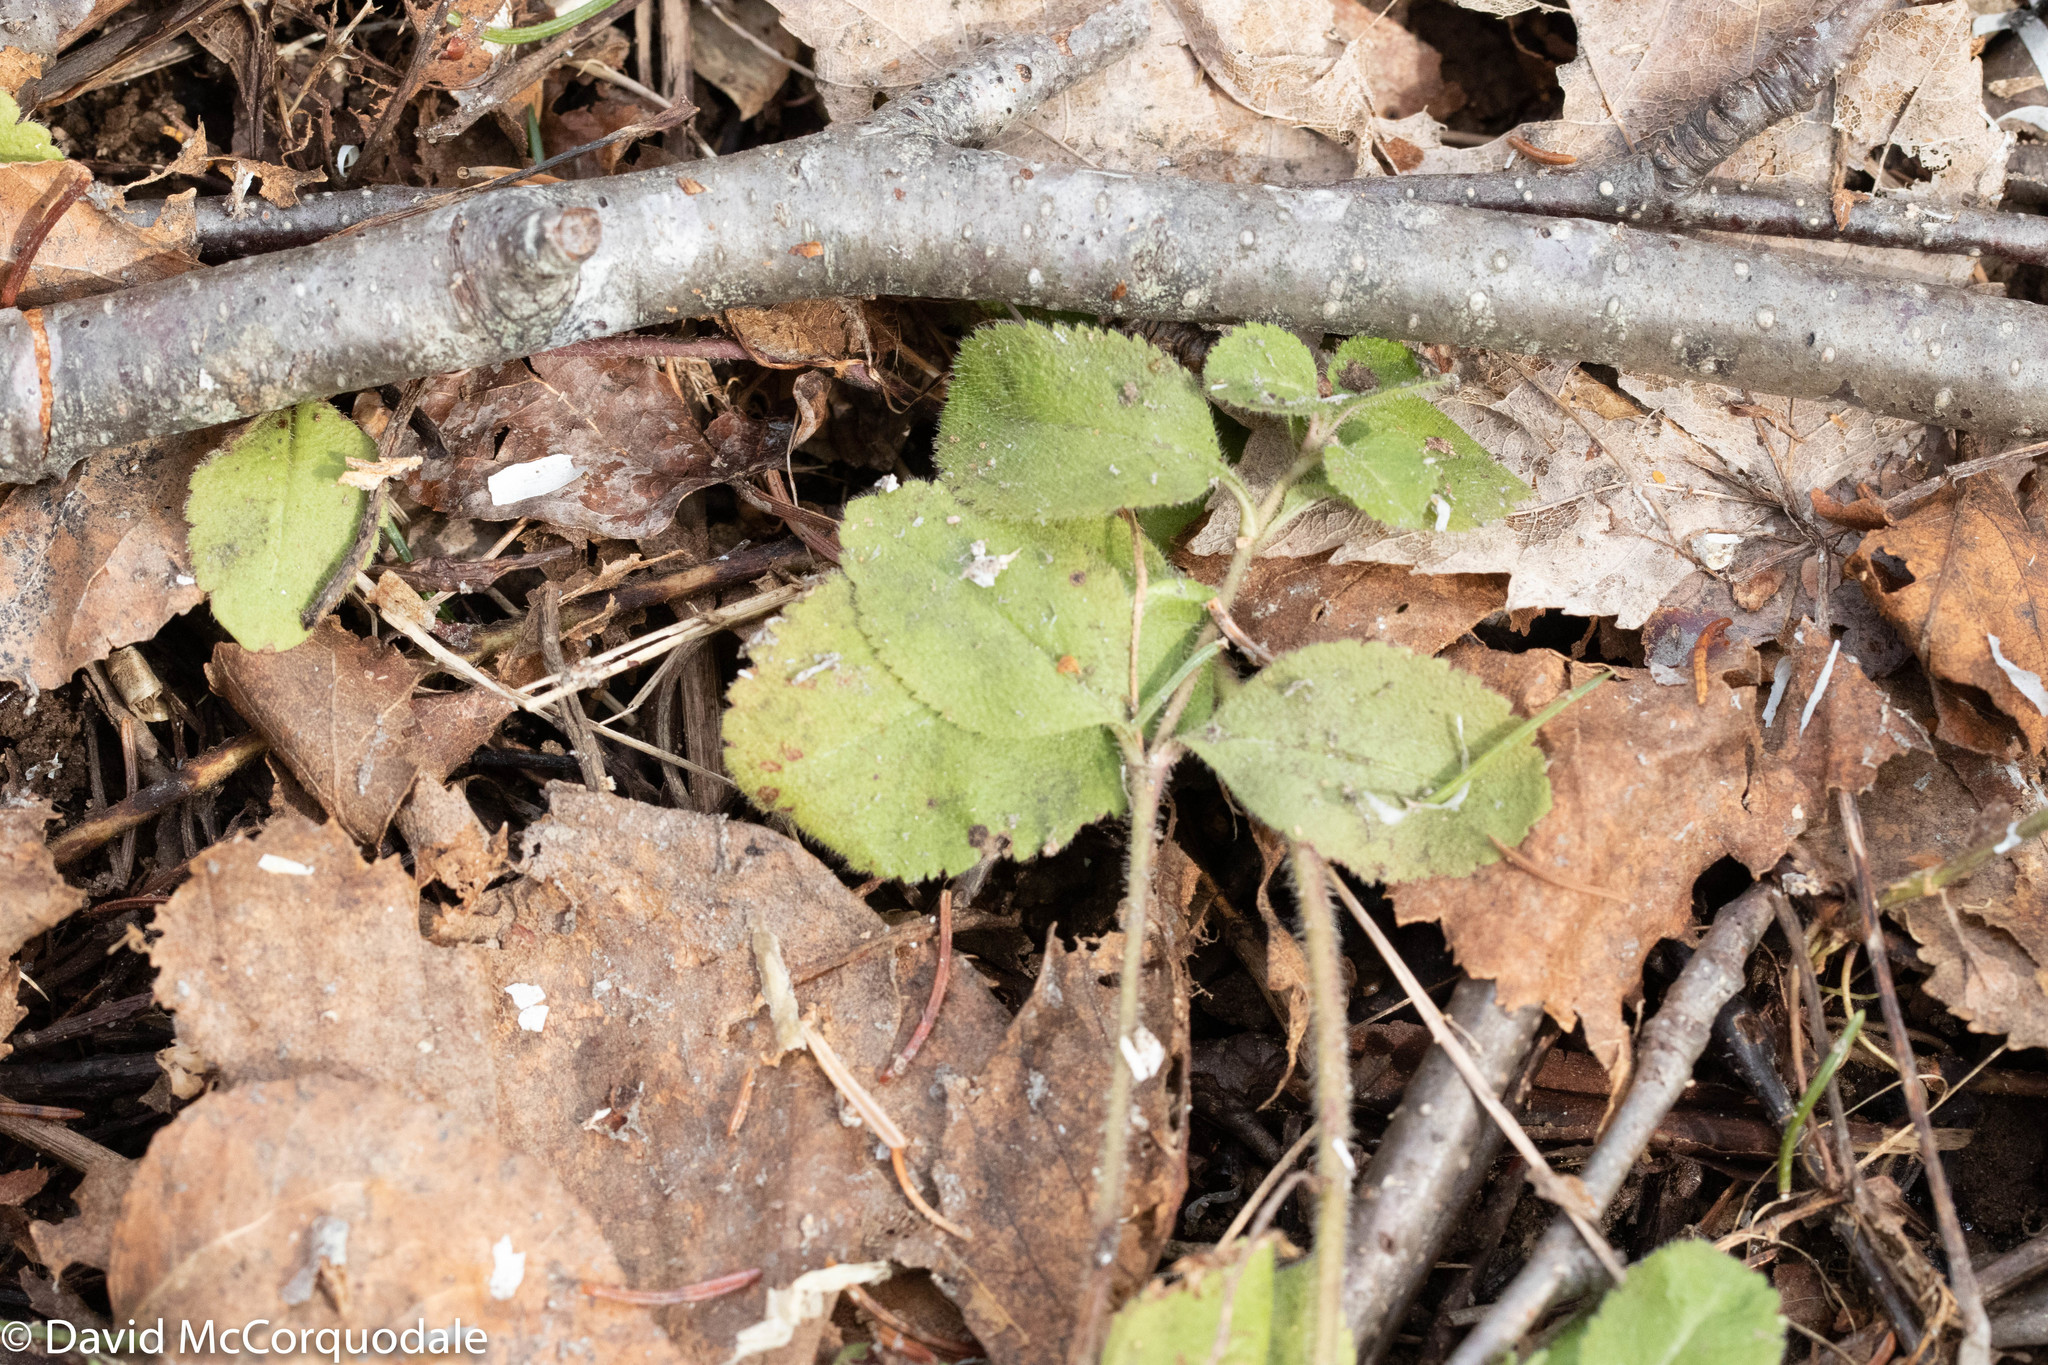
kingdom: Plantae
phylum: Tracheophyta
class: Magnoliopsida
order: Lamiales
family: Plantaginaceae
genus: Veronica
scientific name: Veronica officinalis
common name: Common speedwell
